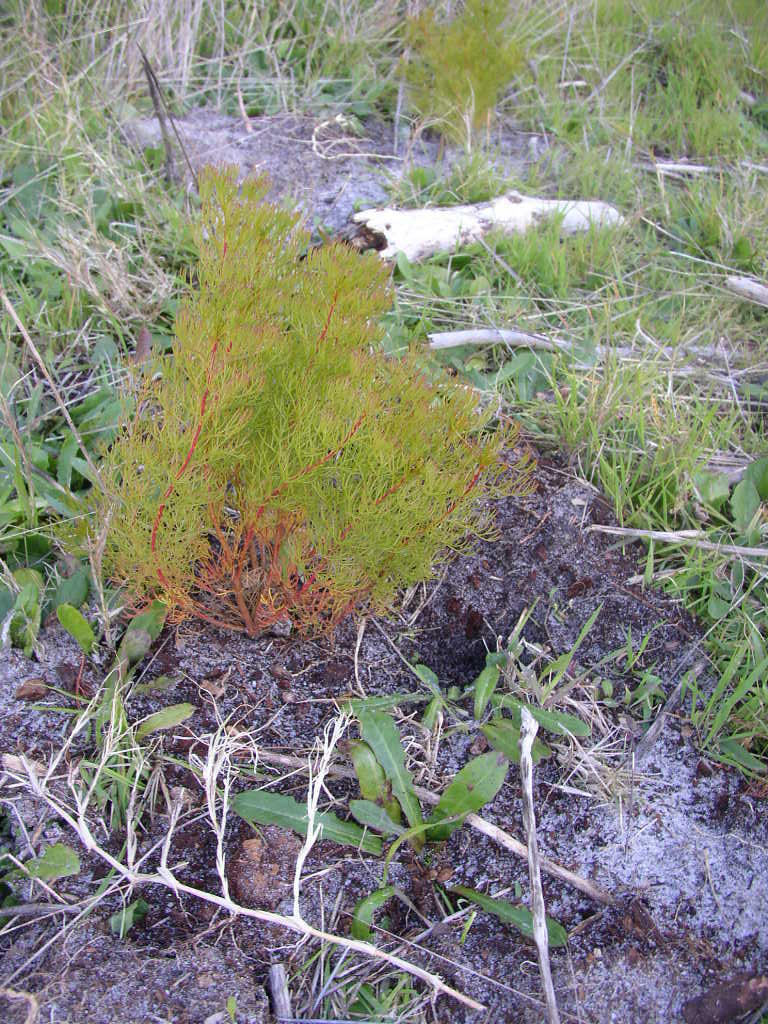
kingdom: Plantae
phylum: Tracheophyta
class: Magnoliopsida
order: Proteales
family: Proteaceae
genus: Serruria
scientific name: Serruria
